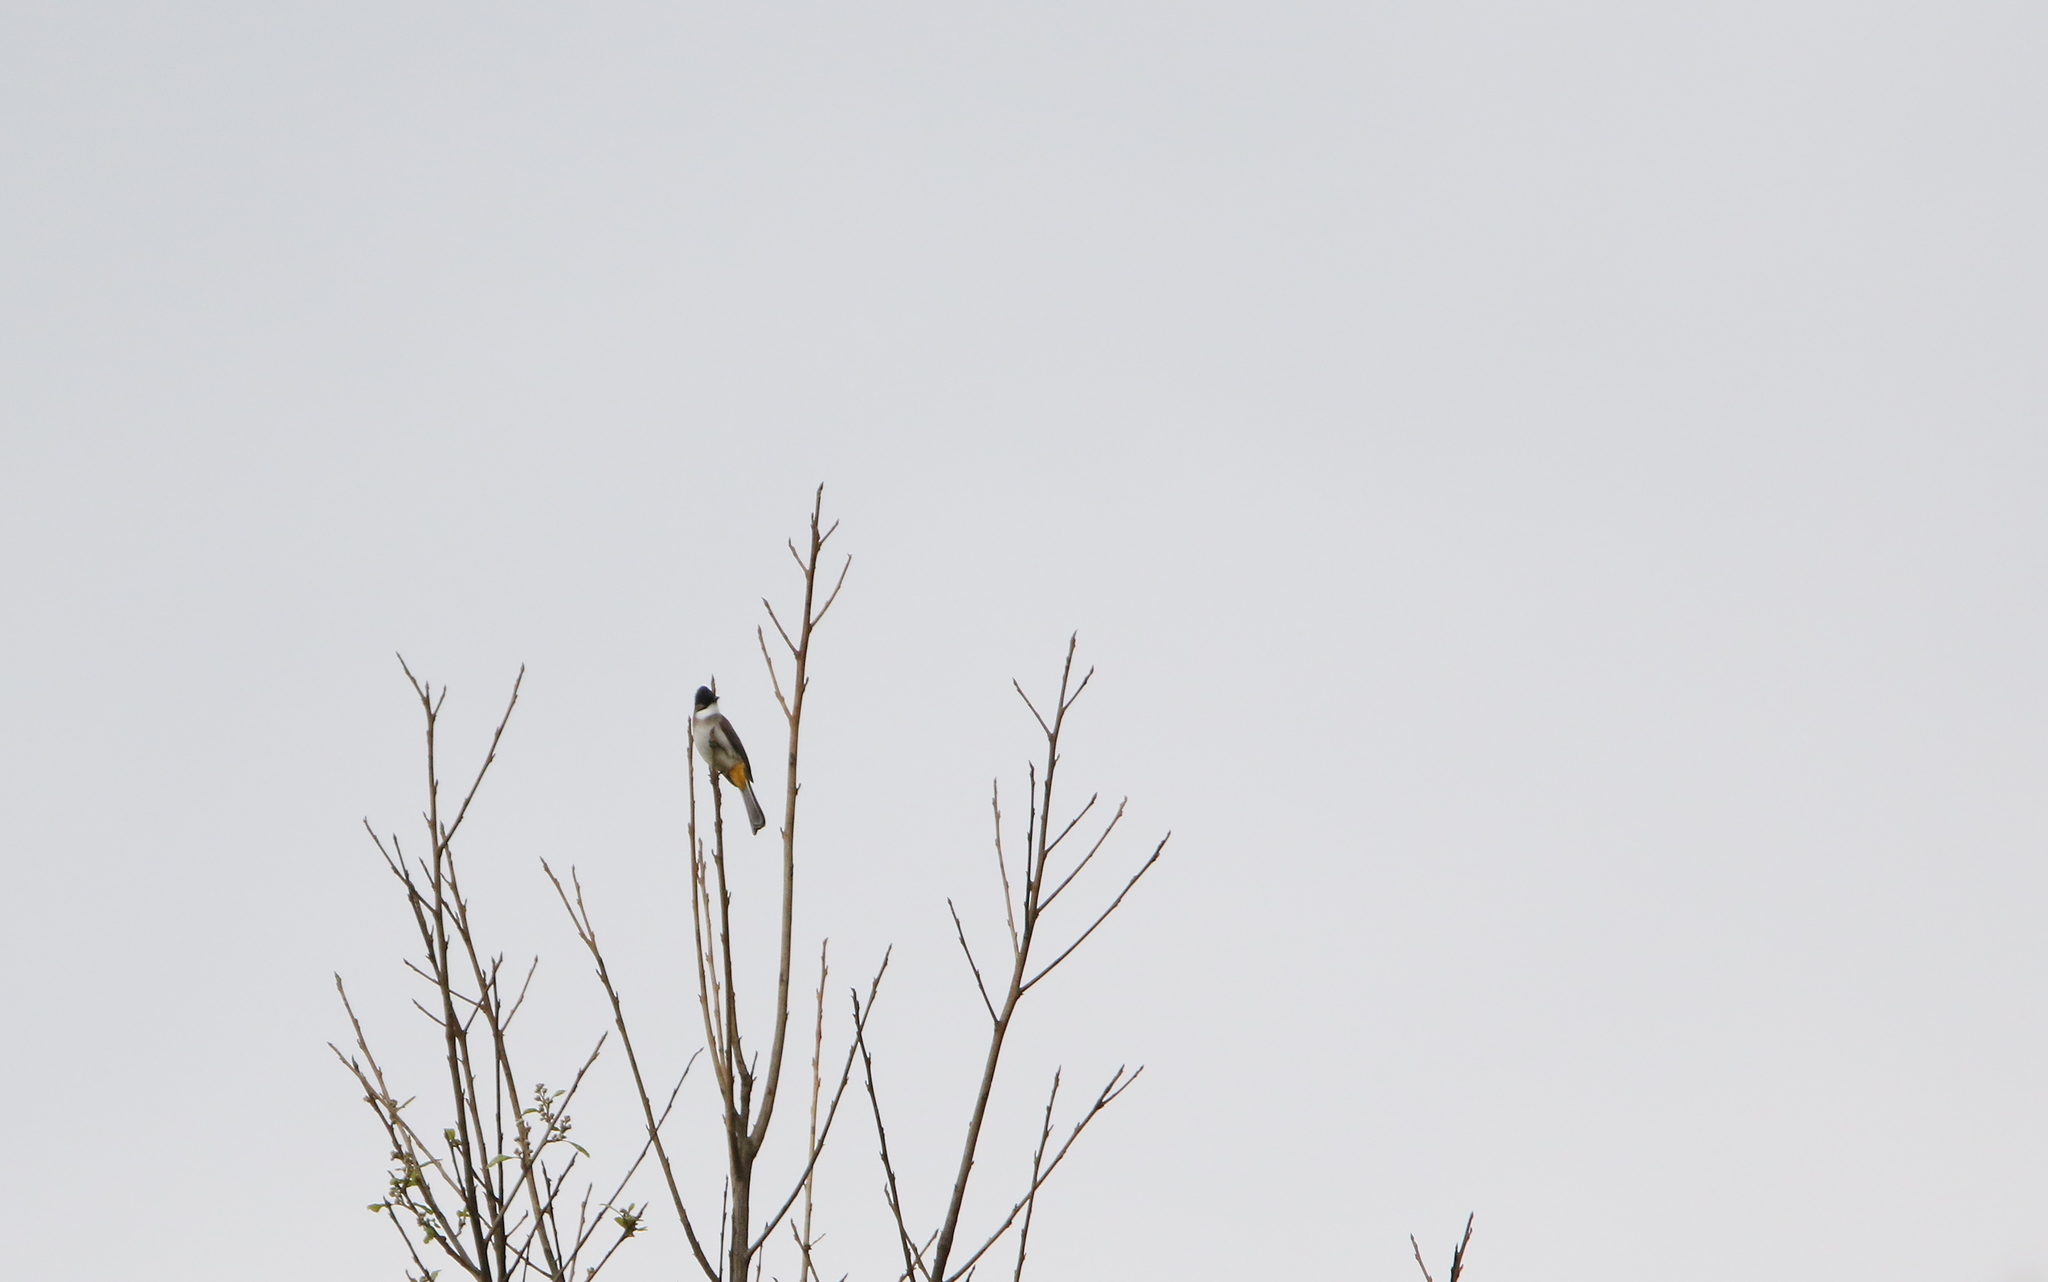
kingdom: Animalia
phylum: Chordata
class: Aves
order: Passeriformes
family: Pycnonotidae
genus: Pycnonotus
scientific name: Pycnonotus xanthorrhous
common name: Brown-breasted bulbul
